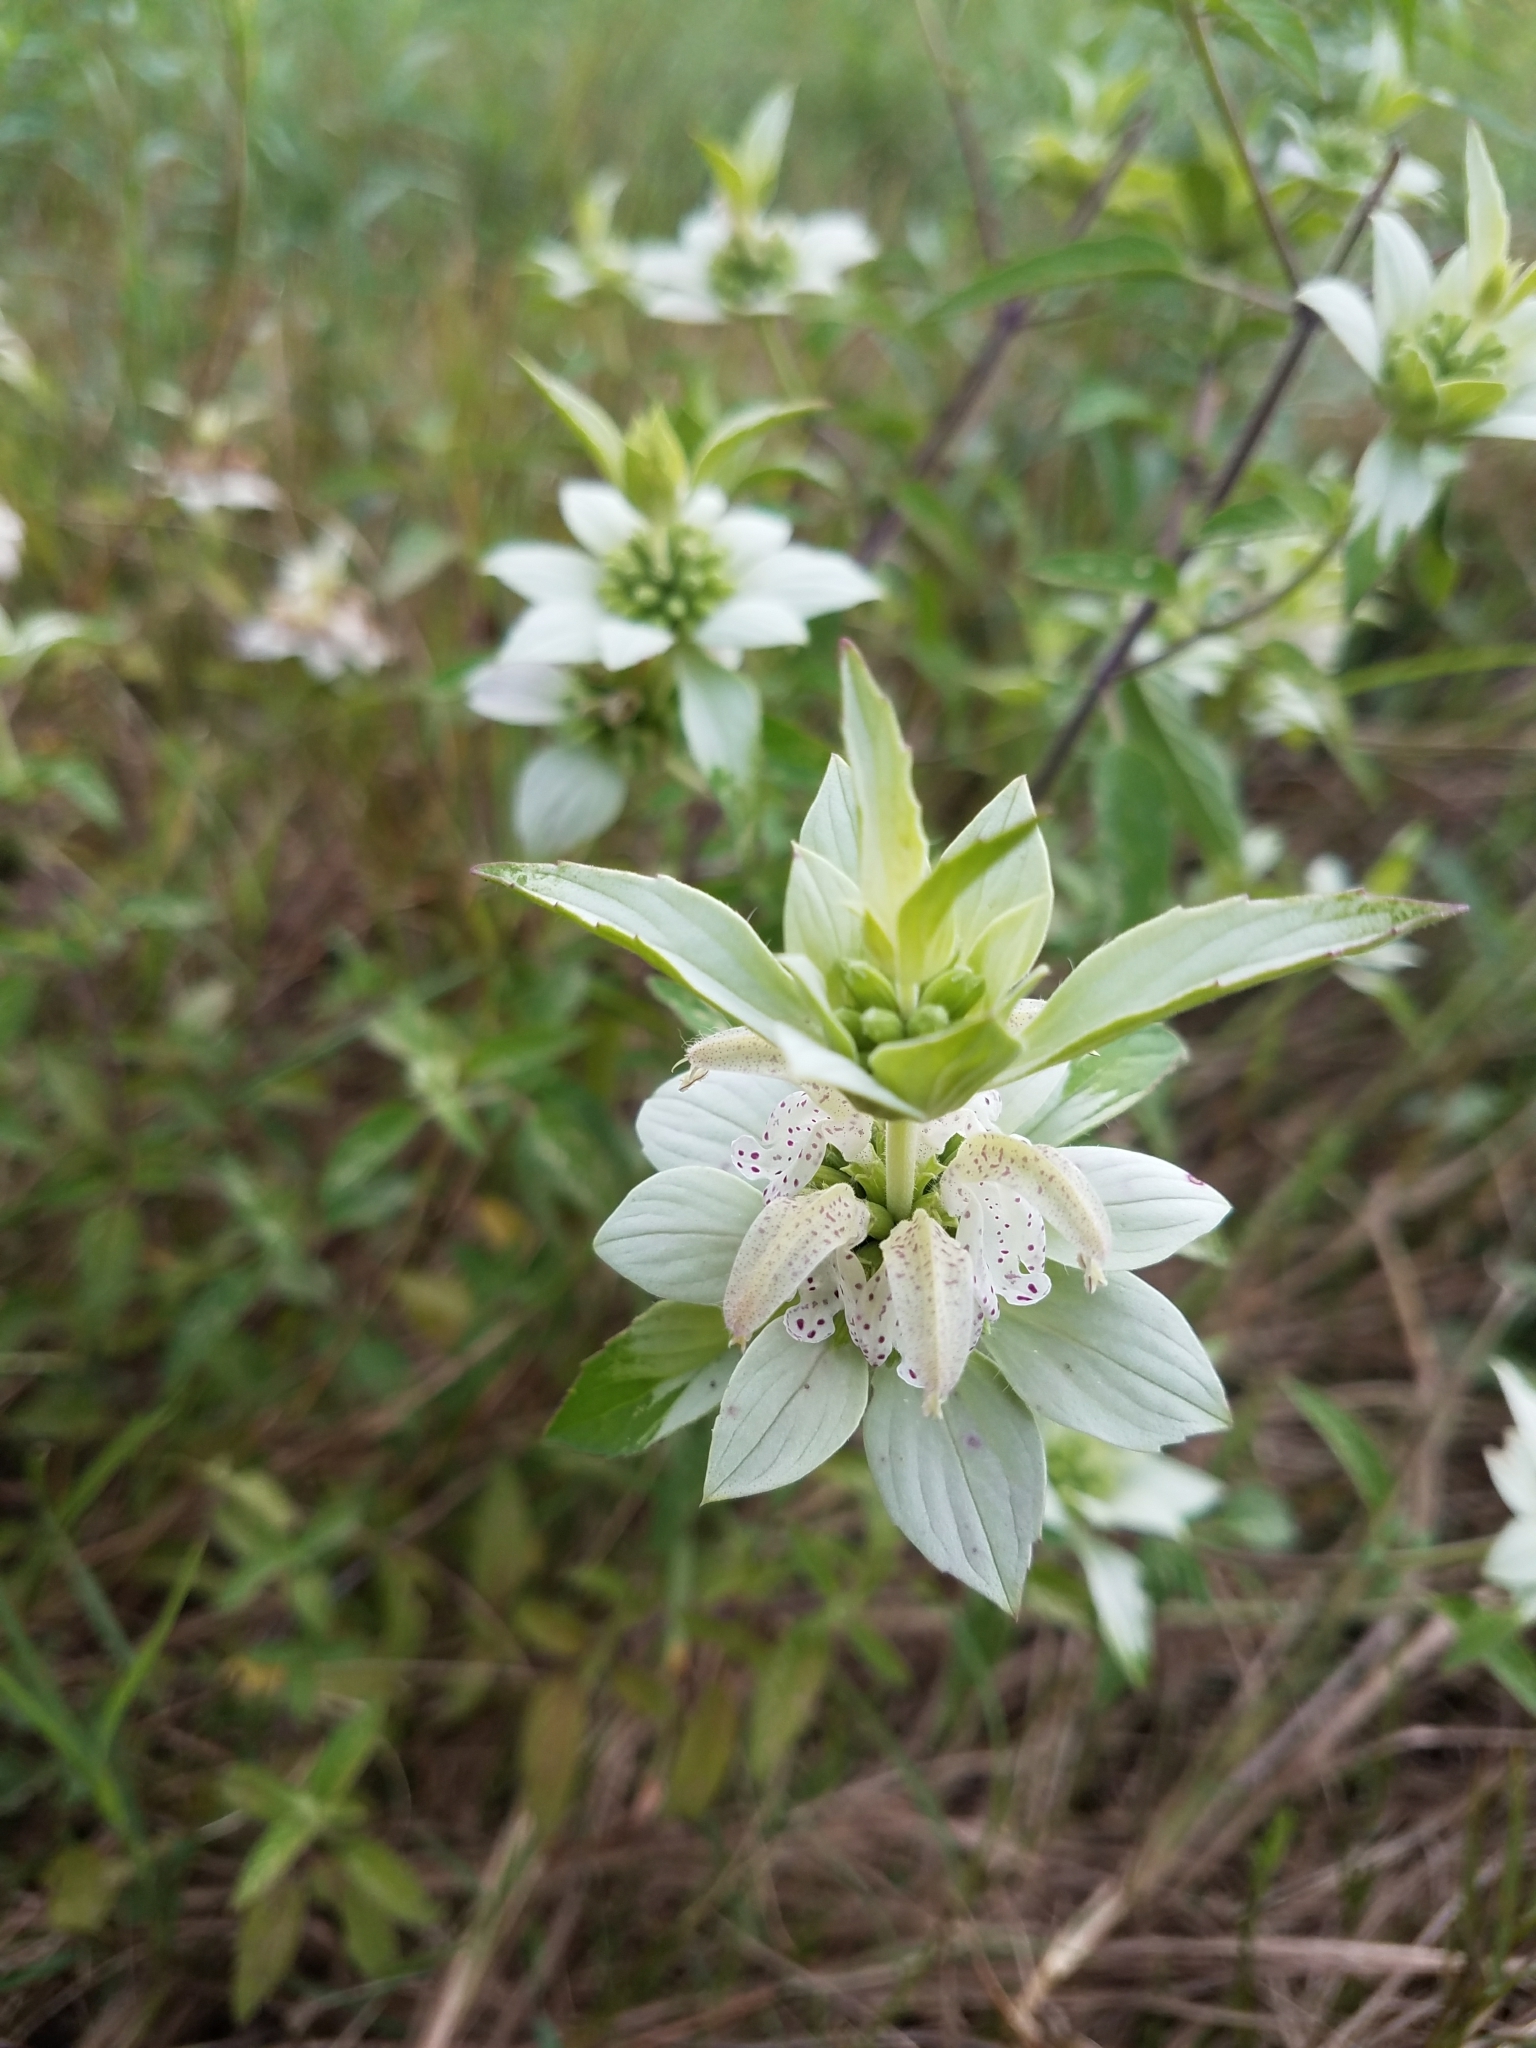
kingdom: Plantae
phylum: Tracheophyta
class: Magnoliopsida
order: Lamiales
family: Lamiaceae
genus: Monarda
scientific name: Monarda punctata
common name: Dotted monarda
